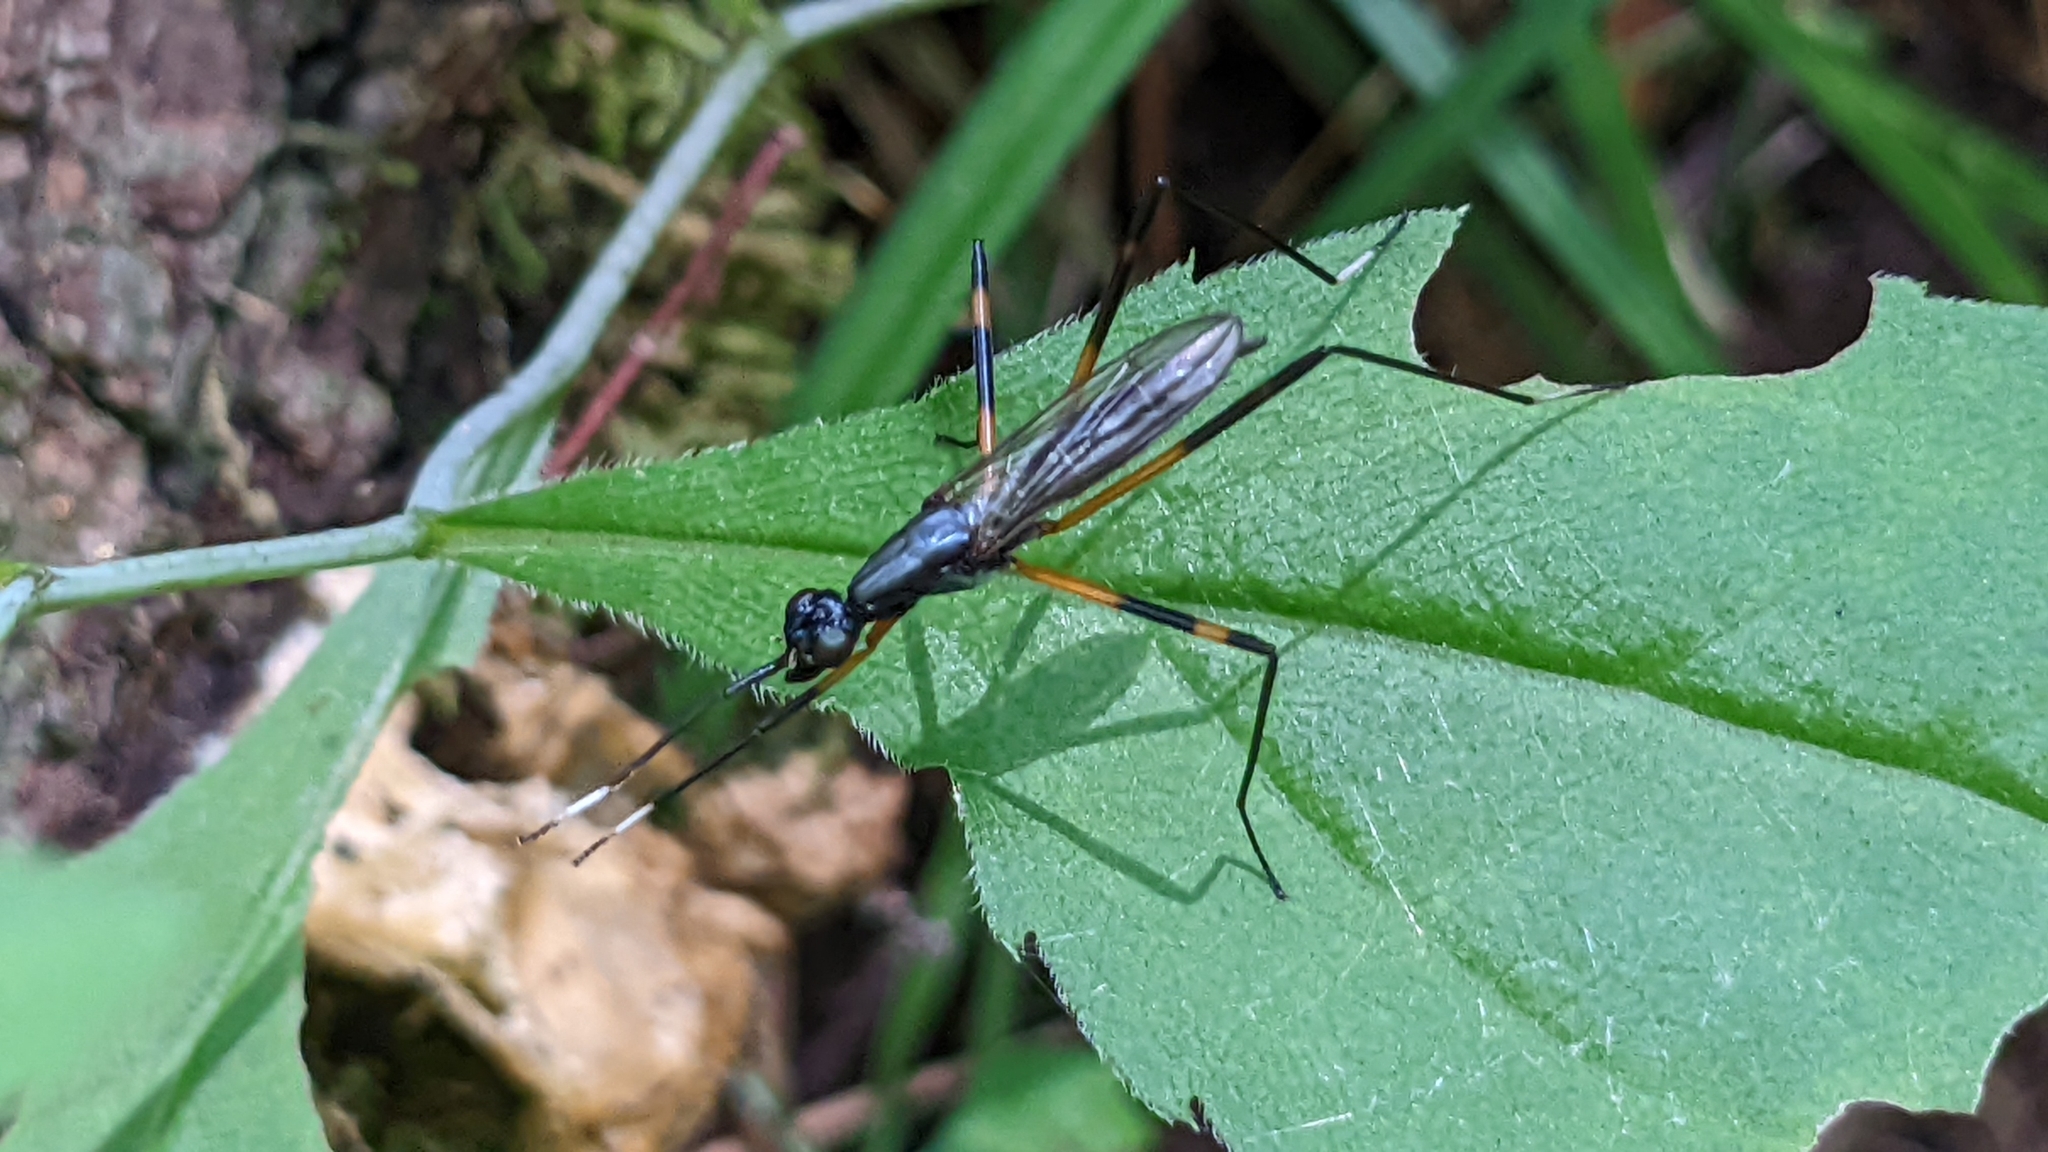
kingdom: Animalia
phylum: Arthropoda
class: Insecta
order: Diptera
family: Micropezidae
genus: Calobatina
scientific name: Calobatina geometra
